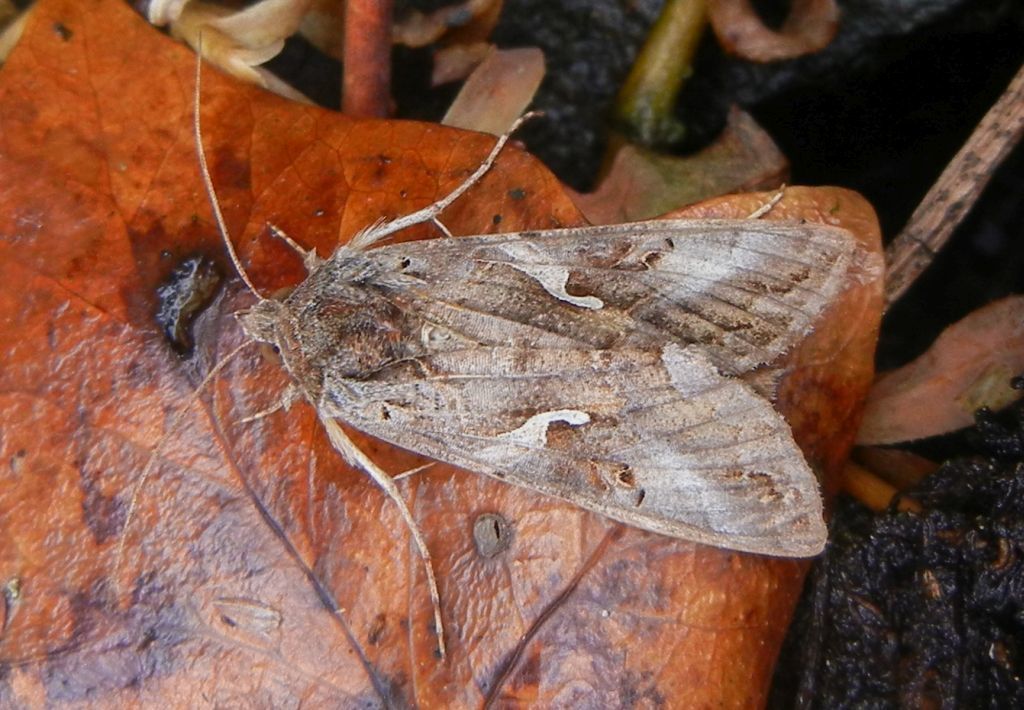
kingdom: Animalia
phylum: Arthropoda
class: Insecta
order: Lepidoptera
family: Noctuidae
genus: Autographa
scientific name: Autographa gamma
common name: Silver y
